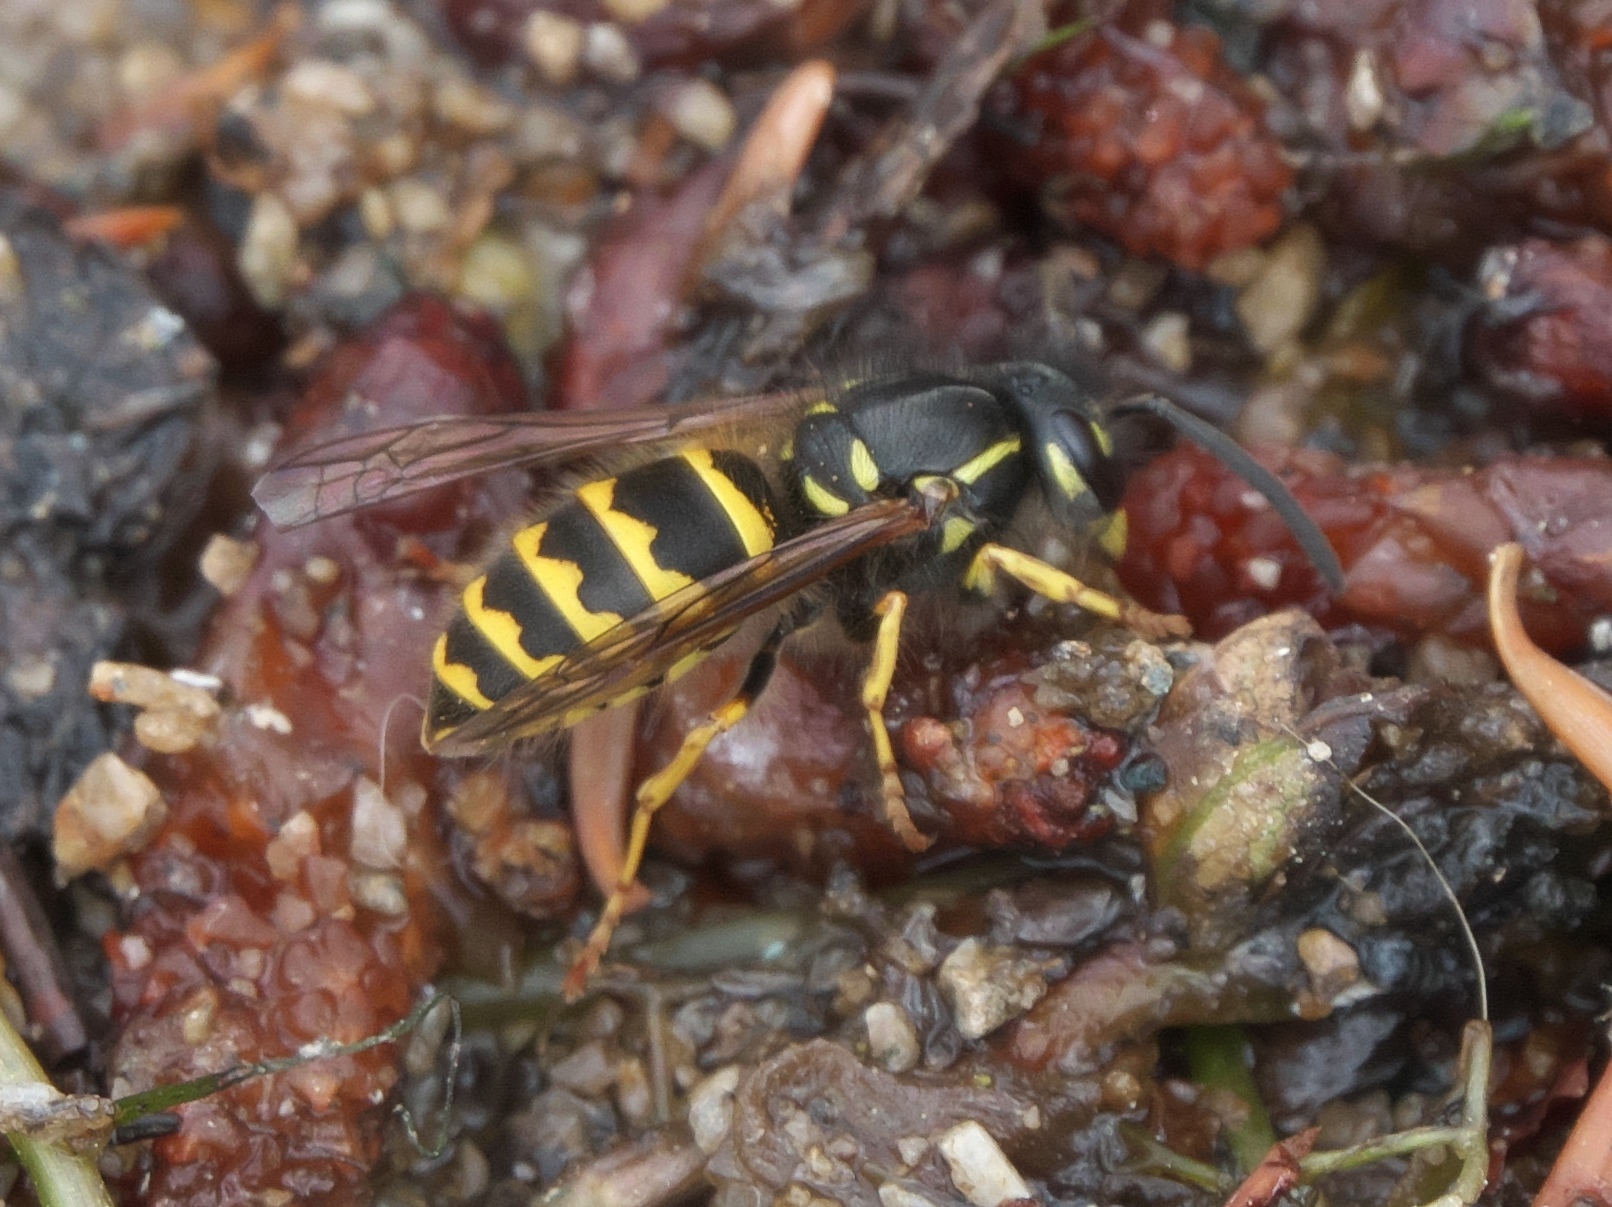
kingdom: Animalia
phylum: Arthropoda
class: Insecta
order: Hymenoptera
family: Vespidae
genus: Vespula
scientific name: Vespula alascensis
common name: Alaska yellowjacket
